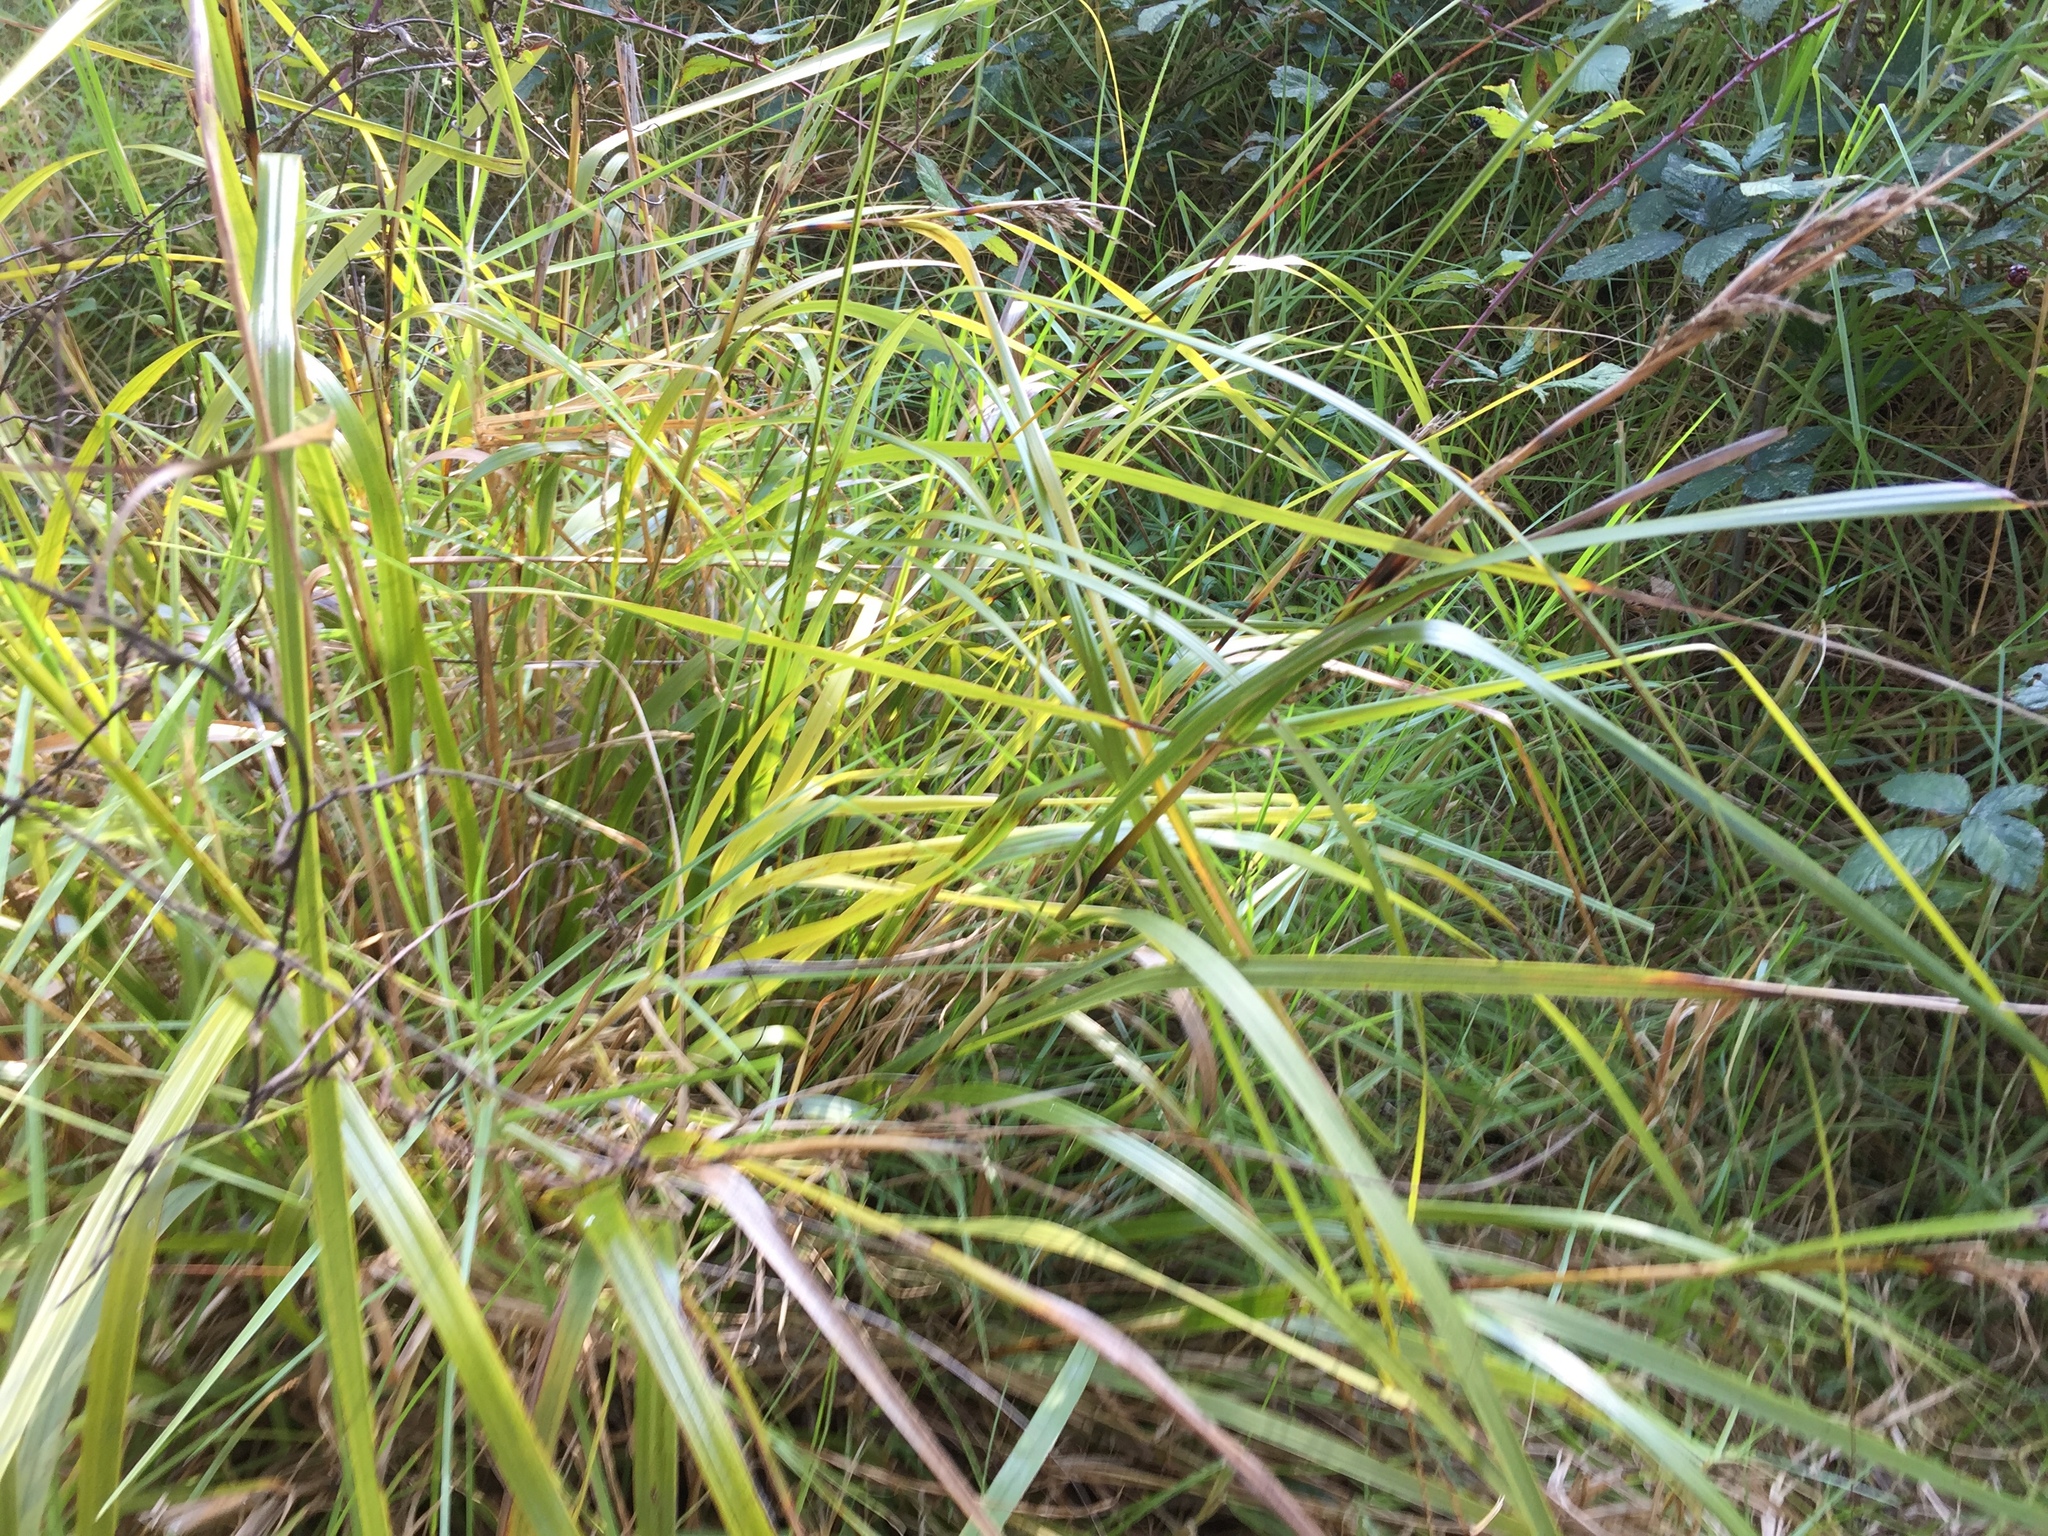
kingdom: Plantae
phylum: Tracheophyta
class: Liliopsida
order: Poales
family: Cyperaceae
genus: Gahnia
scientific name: Gahnia lacera
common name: Sawsedge
